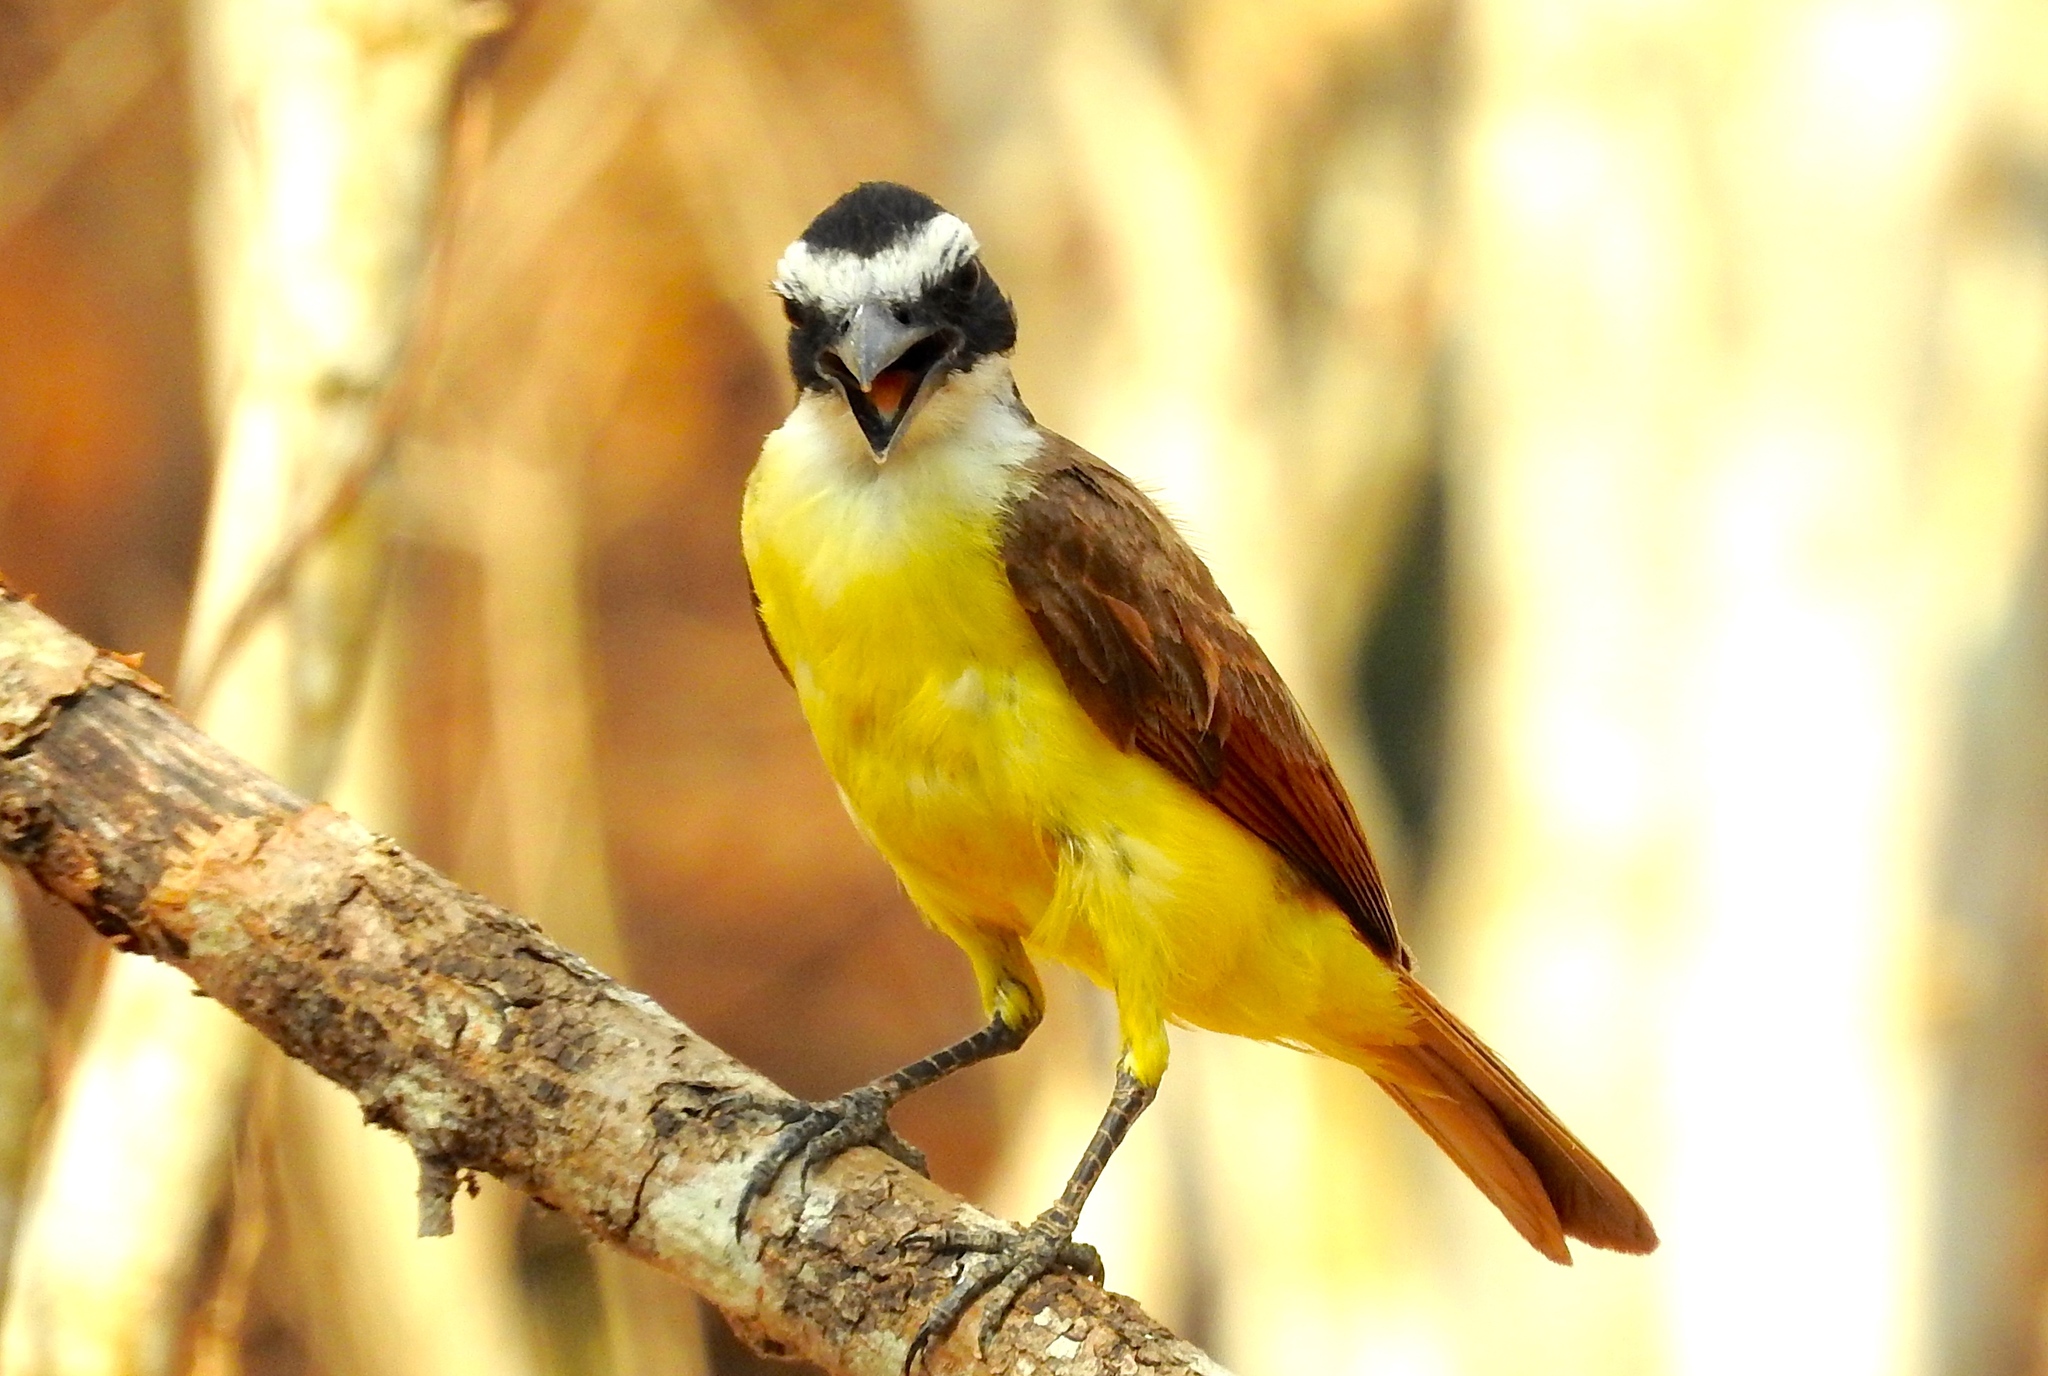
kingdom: Animalia
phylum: Chordata
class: Aves
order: Passeriformes
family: Tyrannidae
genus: Pitangus
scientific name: Pitangus sulphuratus
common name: Great kiskadee
